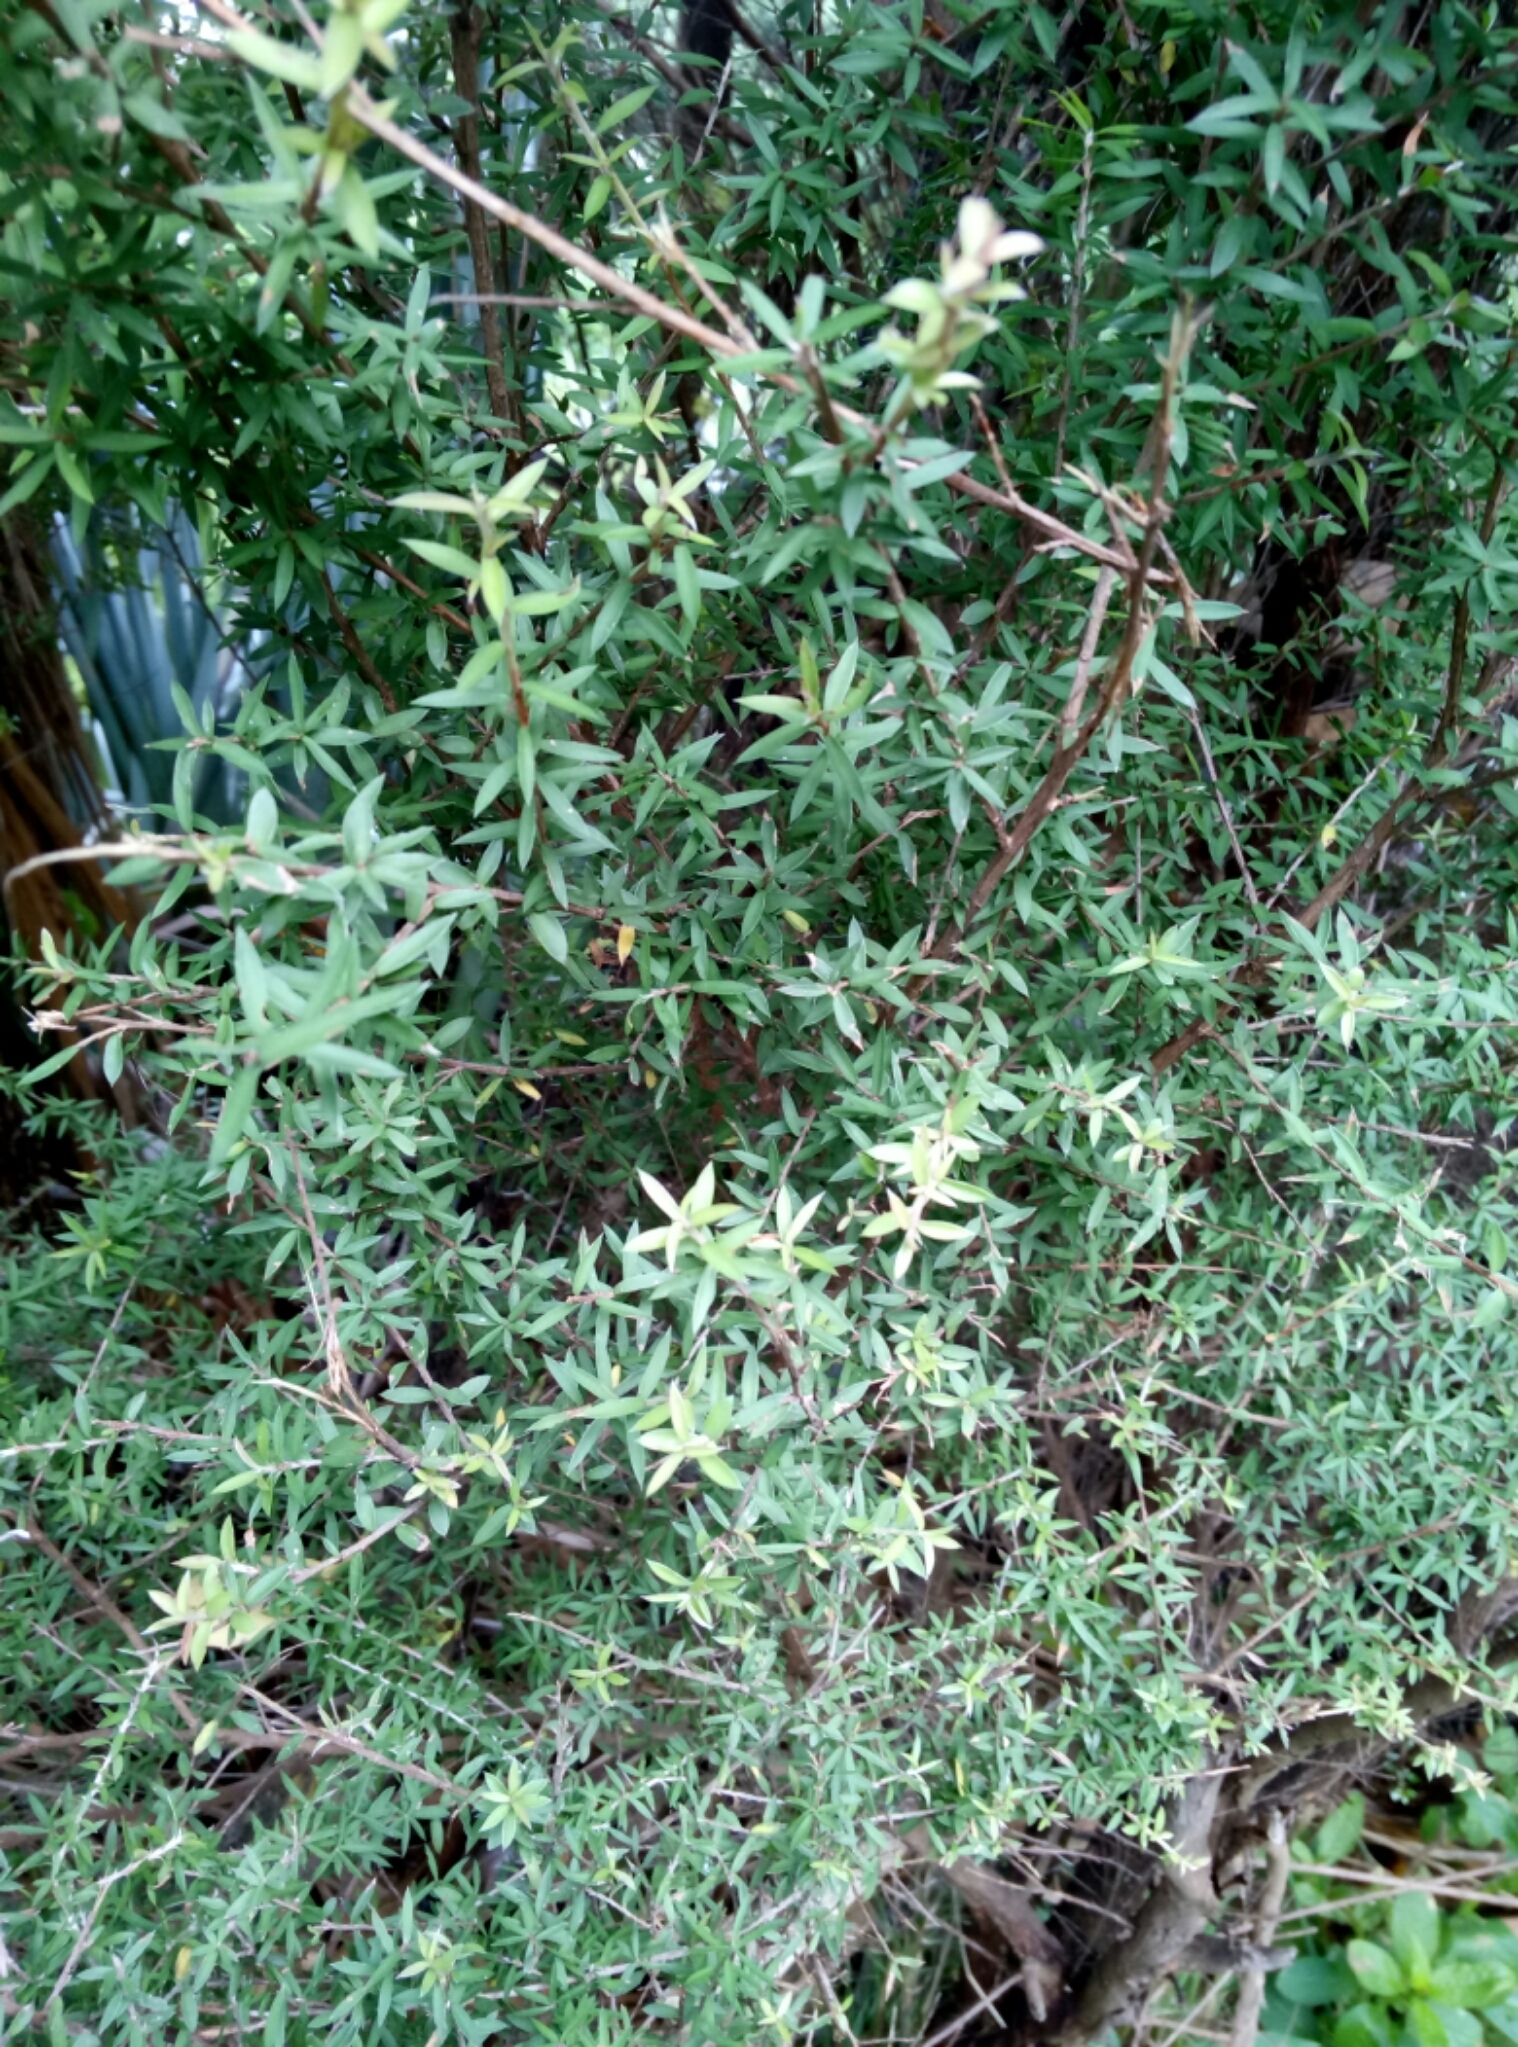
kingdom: Plantae
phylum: Tracheophyta
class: Magnoliopsida
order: Myrtales
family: Myrtaceae
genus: Leptospermum
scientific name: Leptospermum scoparium
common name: Broom tea-tree
